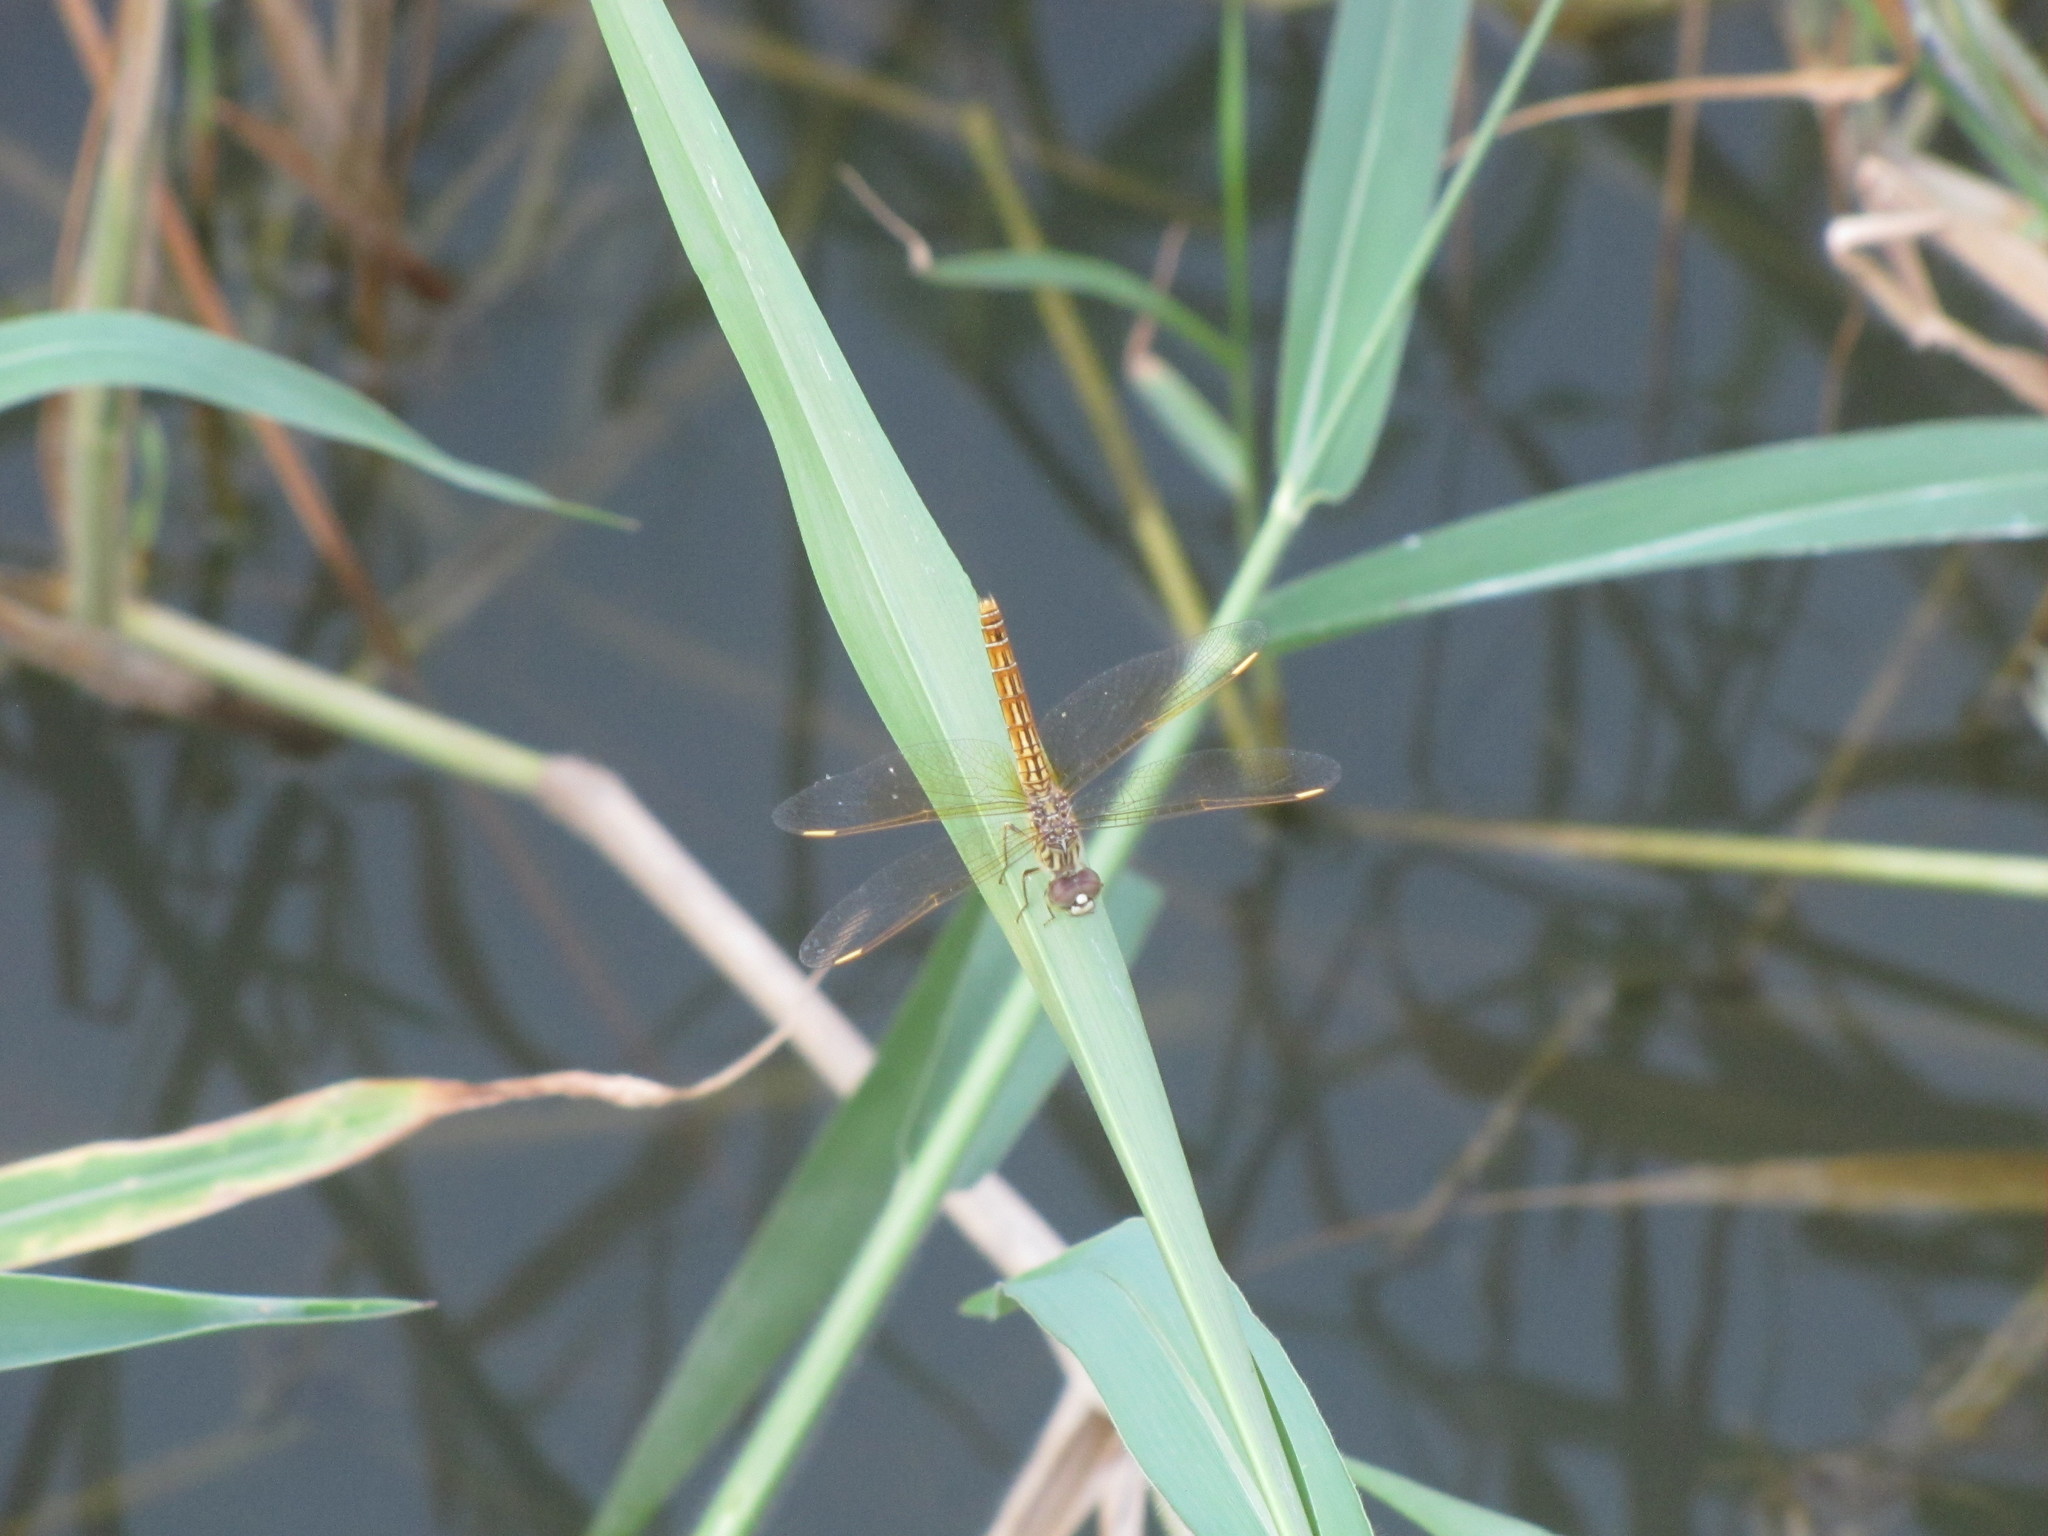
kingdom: Animalia
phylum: Arthropoda
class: Insecta
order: Odonata
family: Libellulidae
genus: Brachythemis
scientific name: Brachythemis contaminata
